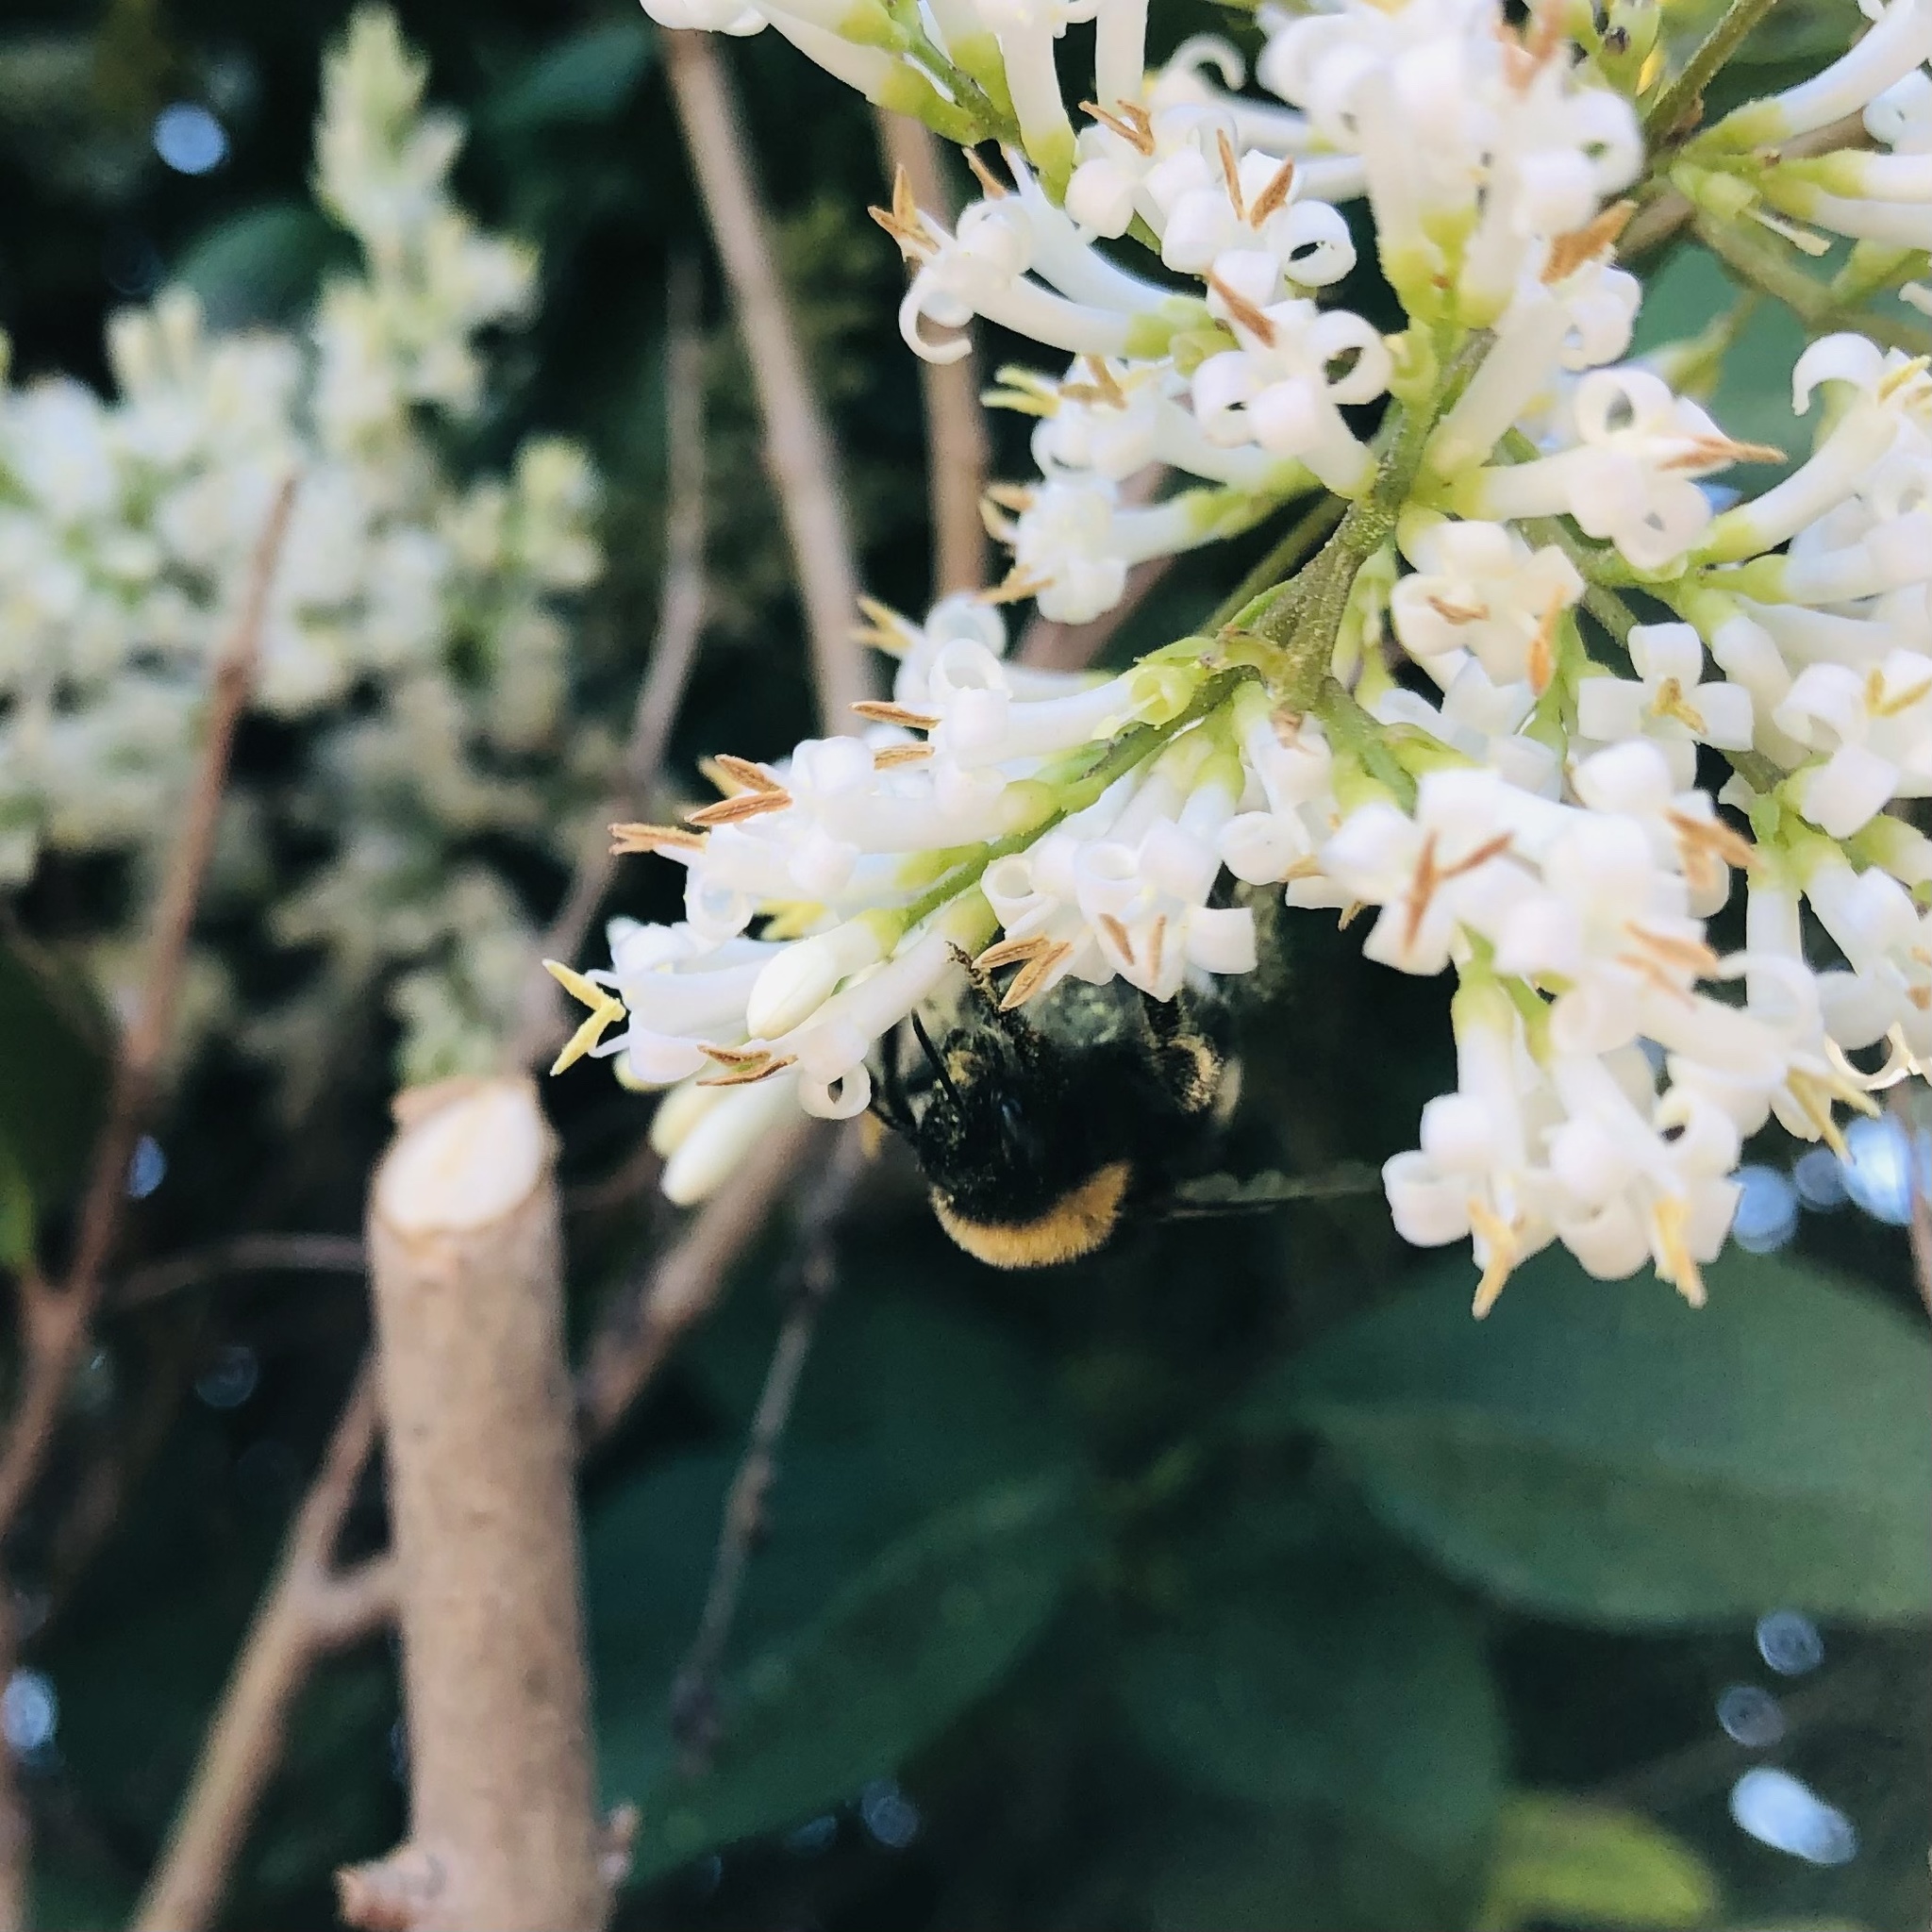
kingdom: Animalia
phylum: Arthropoda
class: Insecta
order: Hymenoptera
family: Apidae
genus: Bombus
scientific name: Bombus terrestris
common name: Buff-tailed bumblebee
